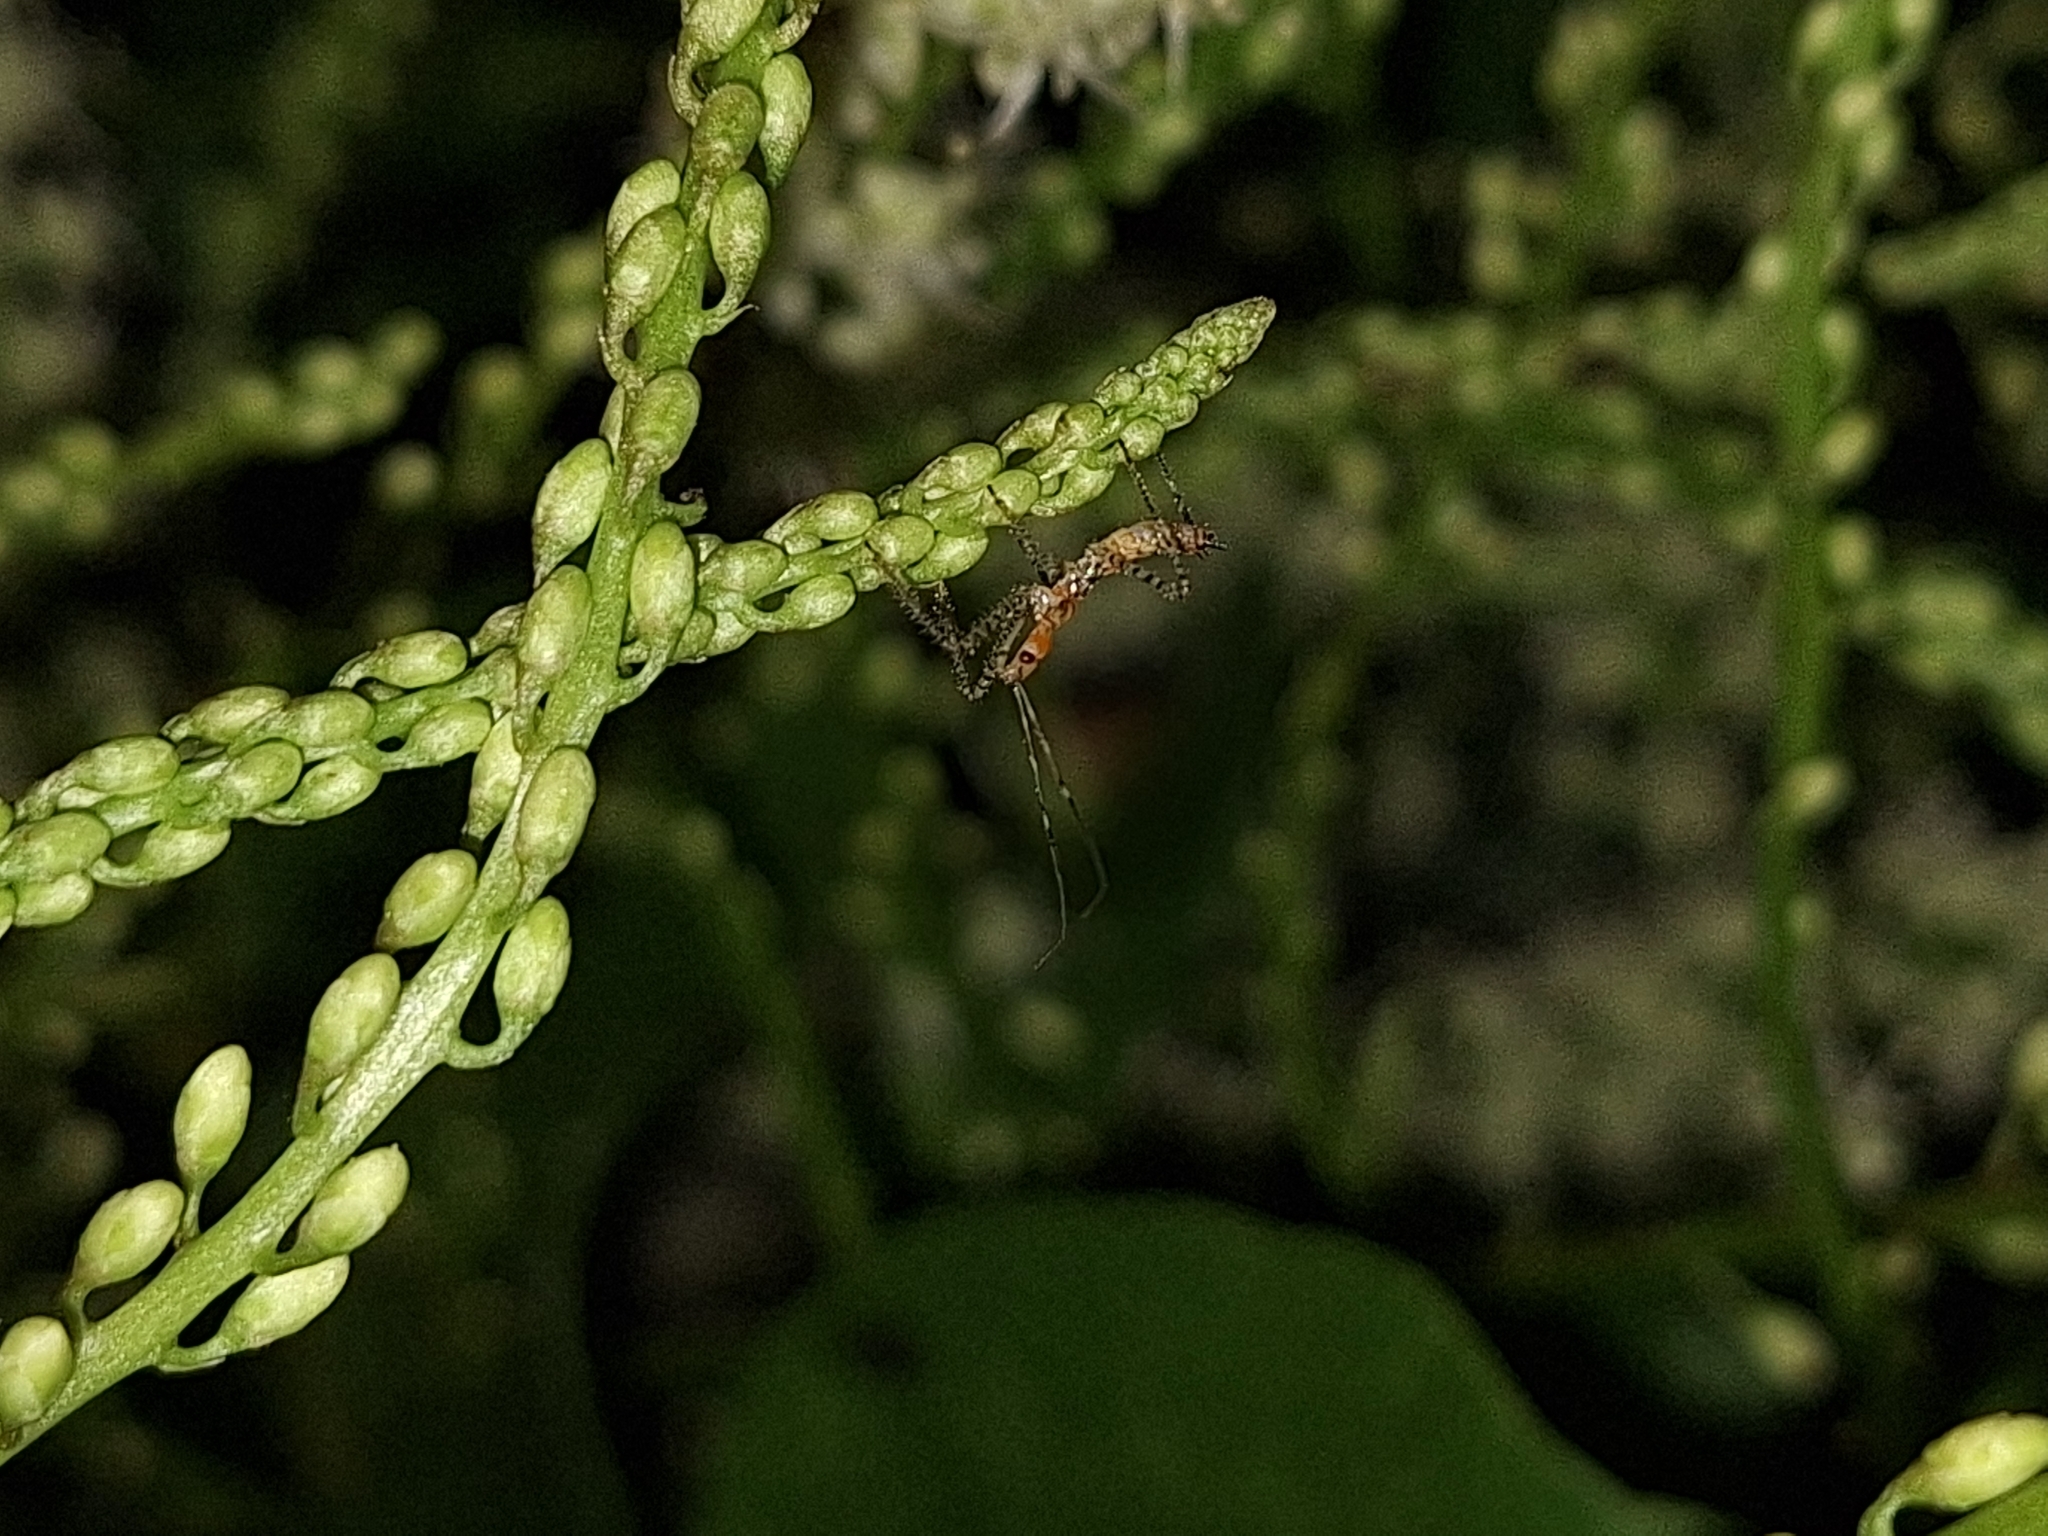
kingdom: Animalia
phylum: Arthropoda
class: Insecta
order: Hemiptera
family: Reduviidae
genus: Zelus
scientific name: Zelus renardii
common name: Assassin bug
